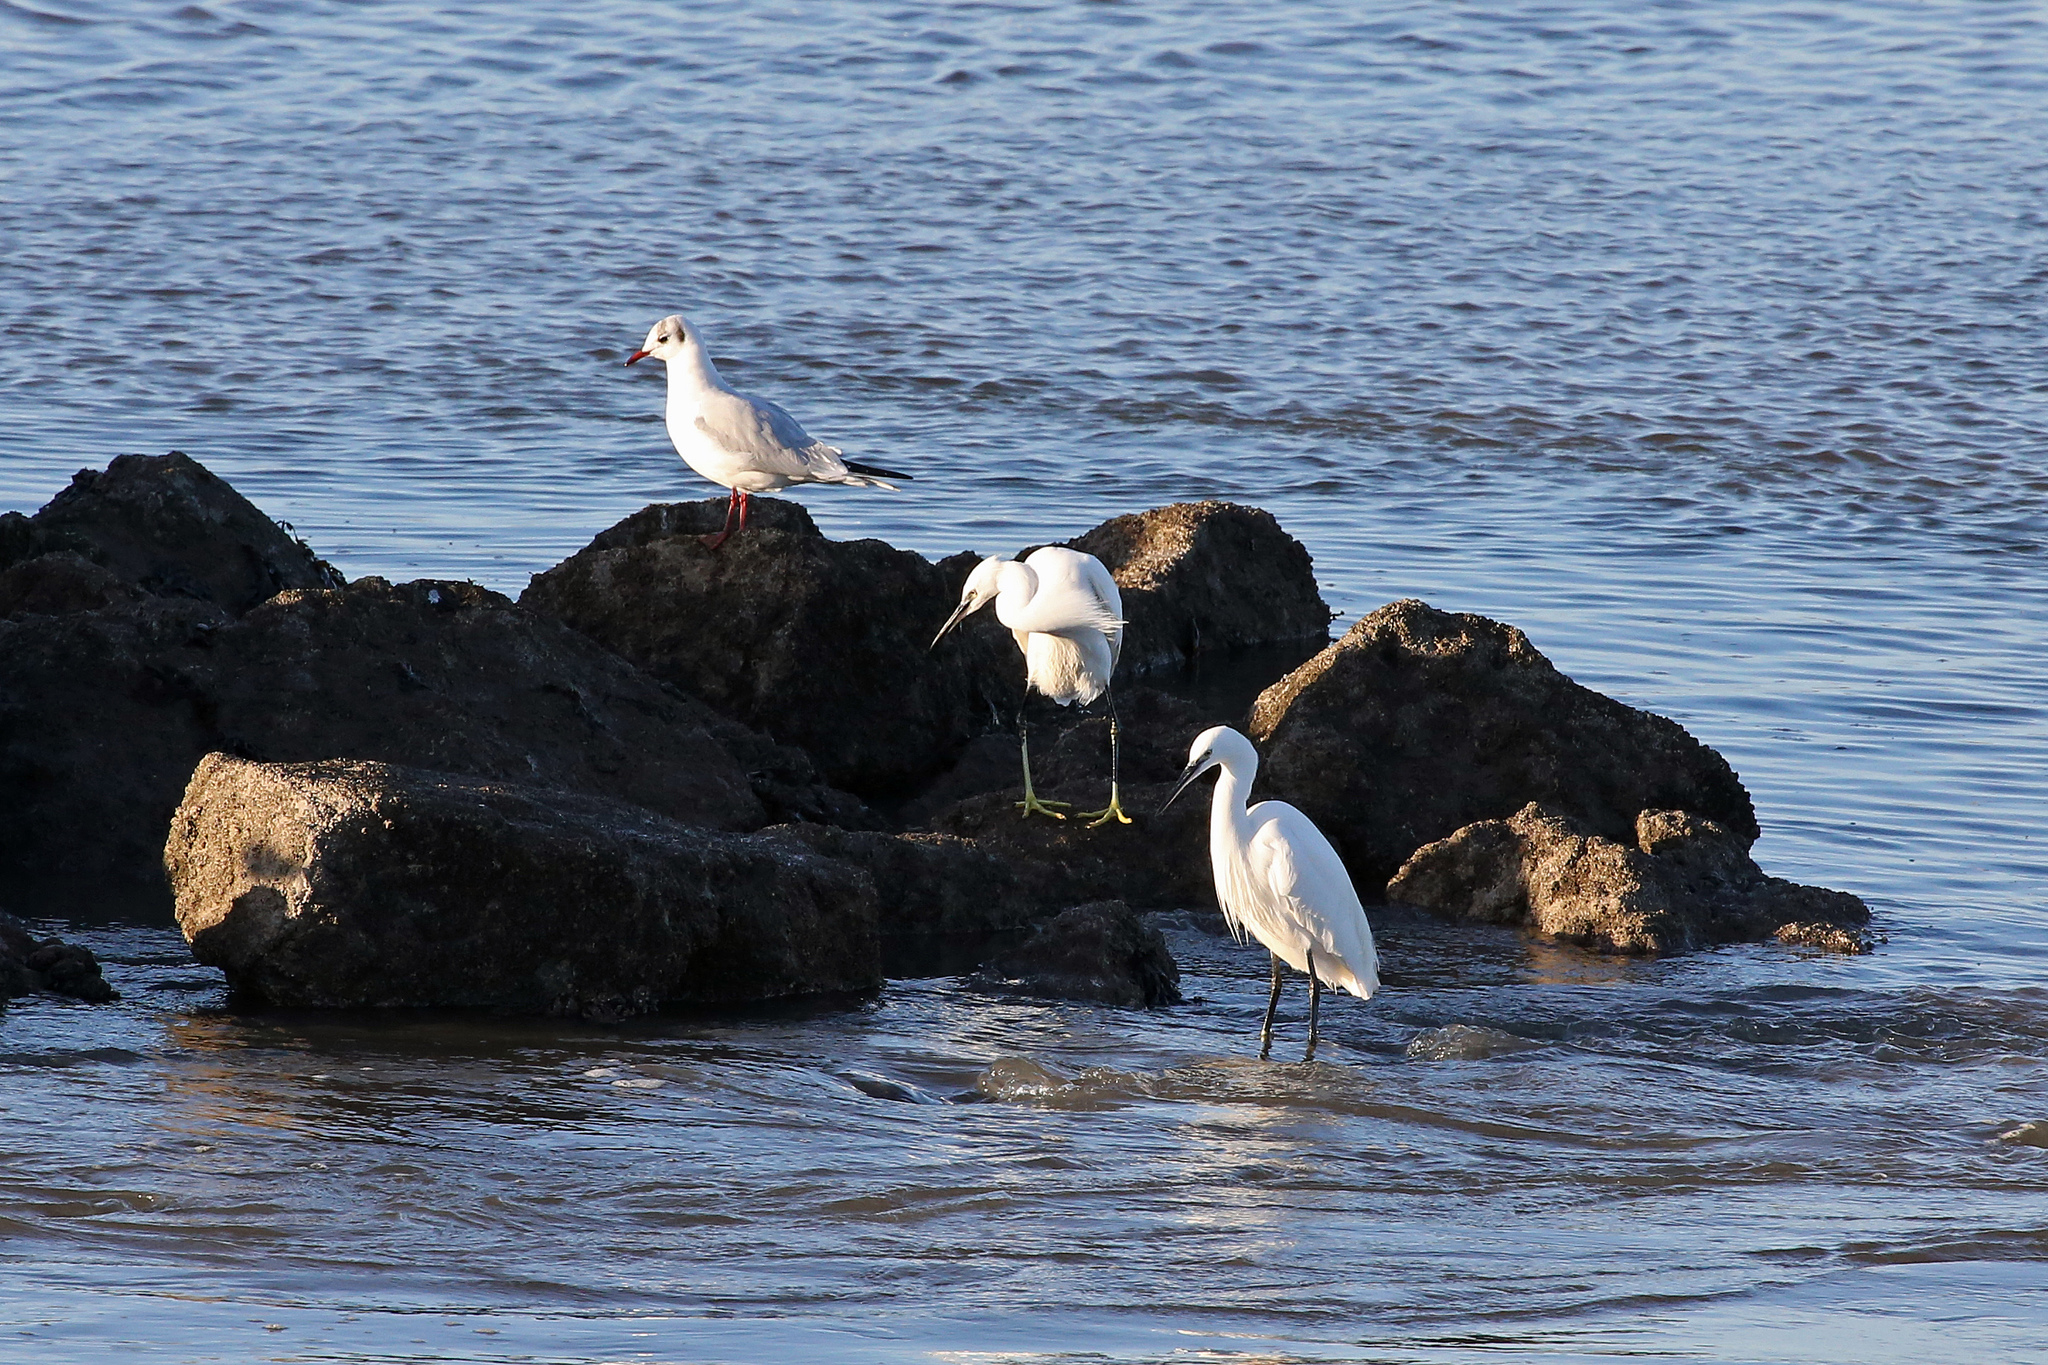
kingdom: Animalia
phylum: Chordata
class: Aves
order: Pelecaniformes
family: Ardeidae
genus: Egretta
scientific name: Egretta garzetta
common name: Little egret
